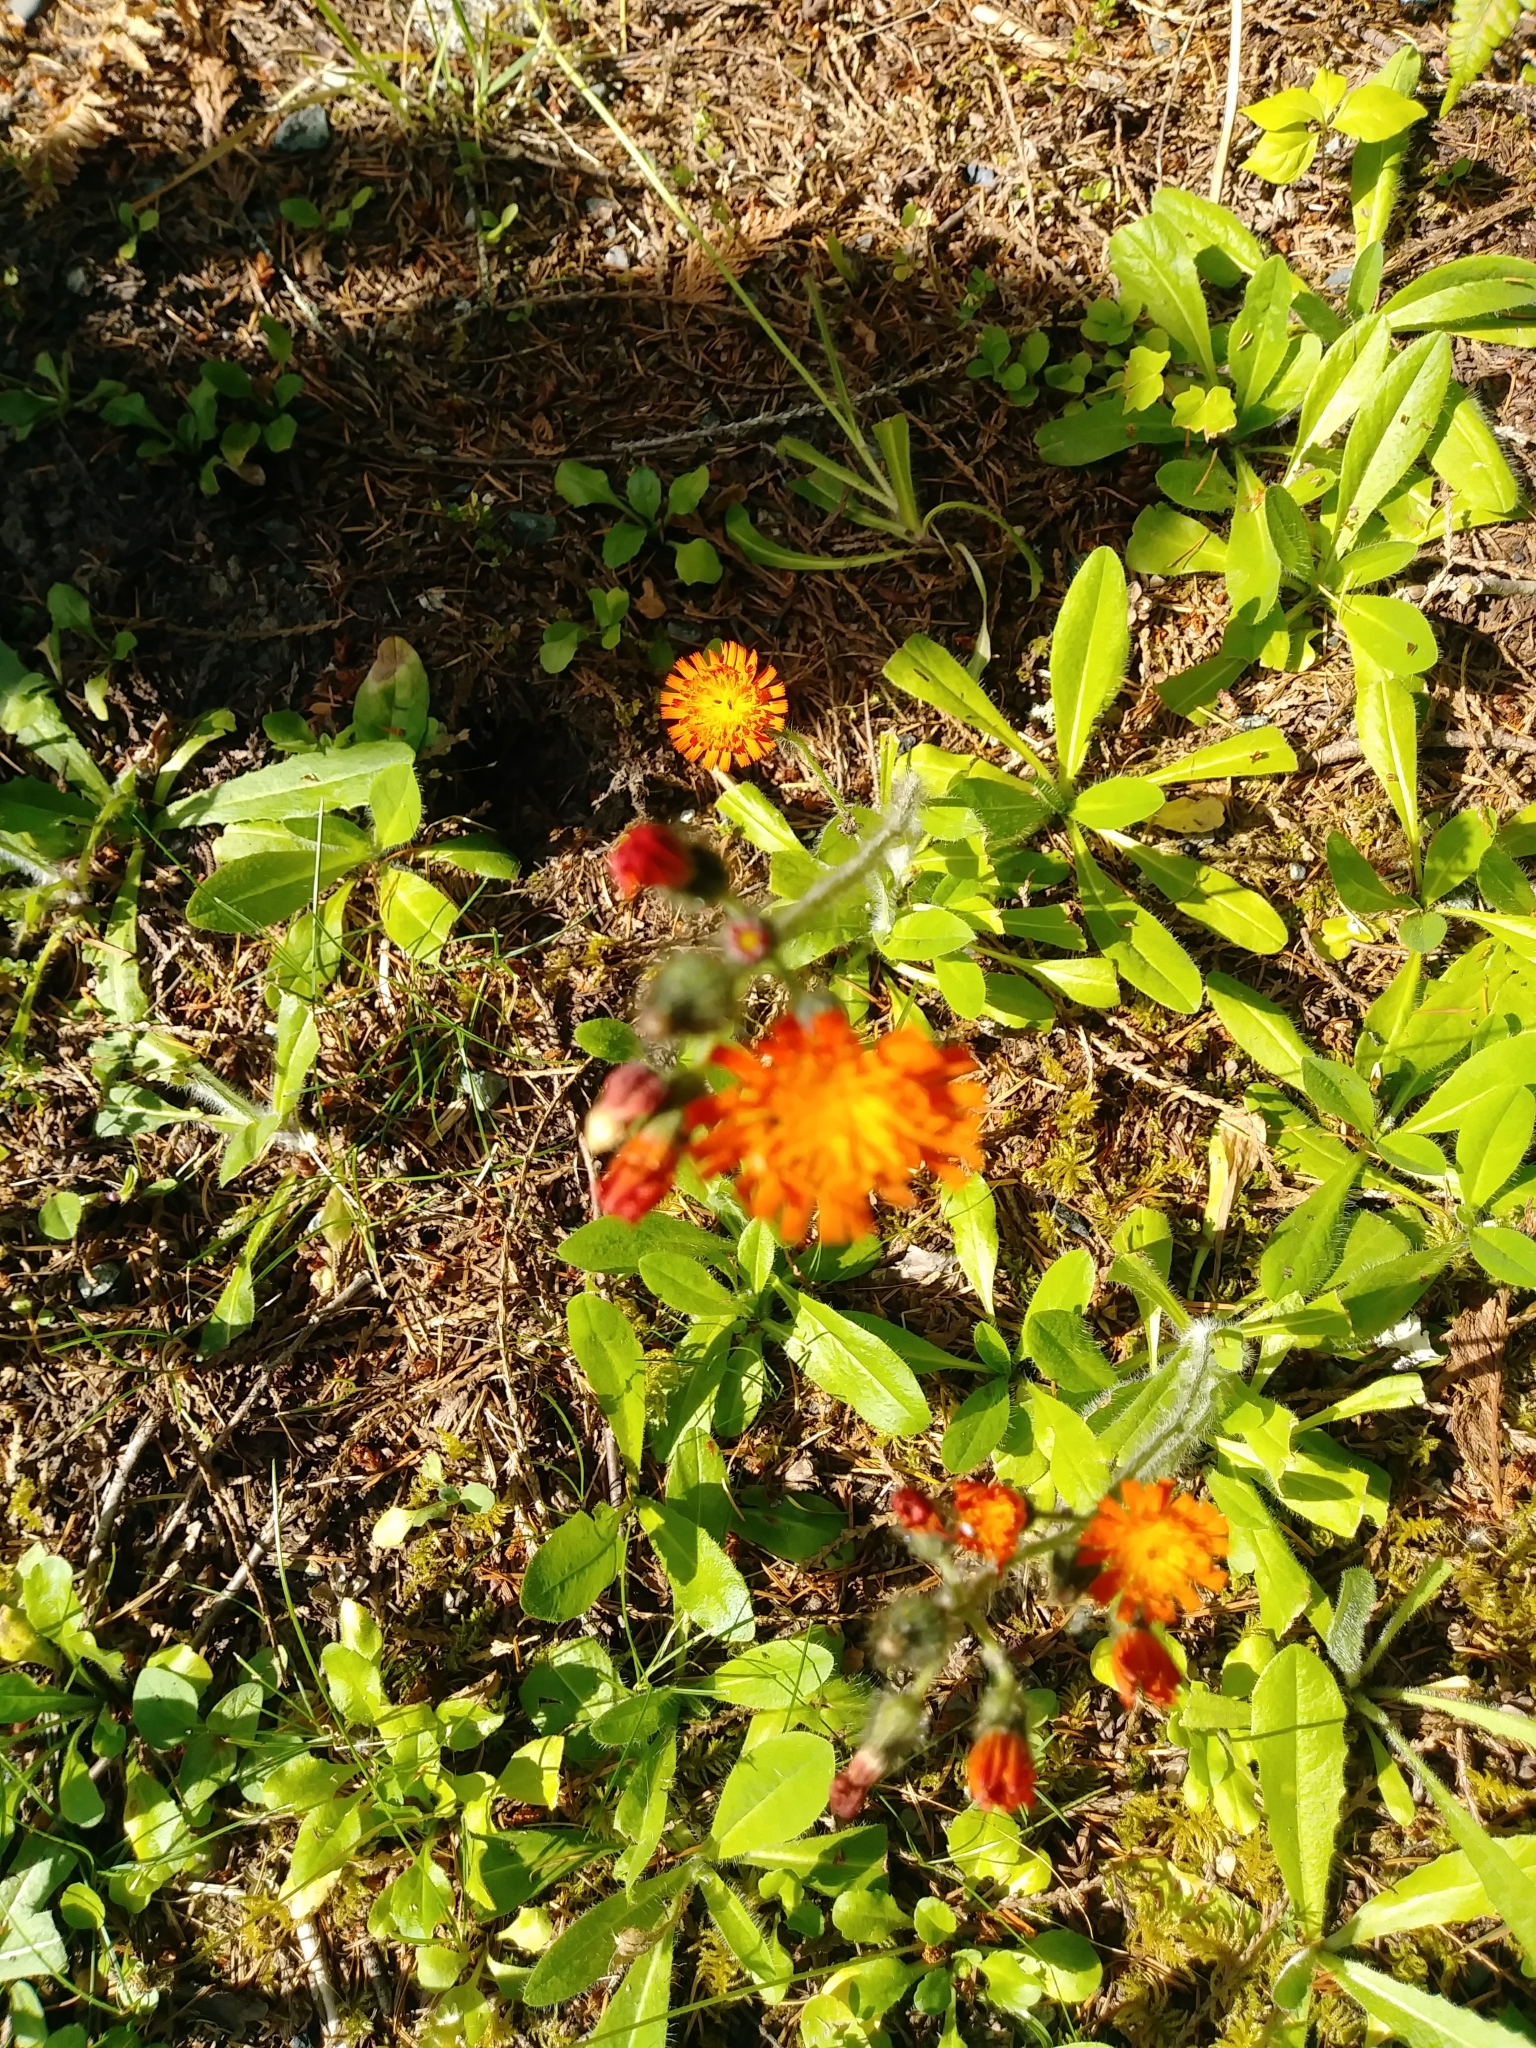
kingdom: Plantae
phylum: Tracheophyta
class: Magnoliopsida
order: Asterales
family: Asteraceae
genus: Pilosella
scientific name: Pilosella aurantiaca
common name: Fox-and-cubs
